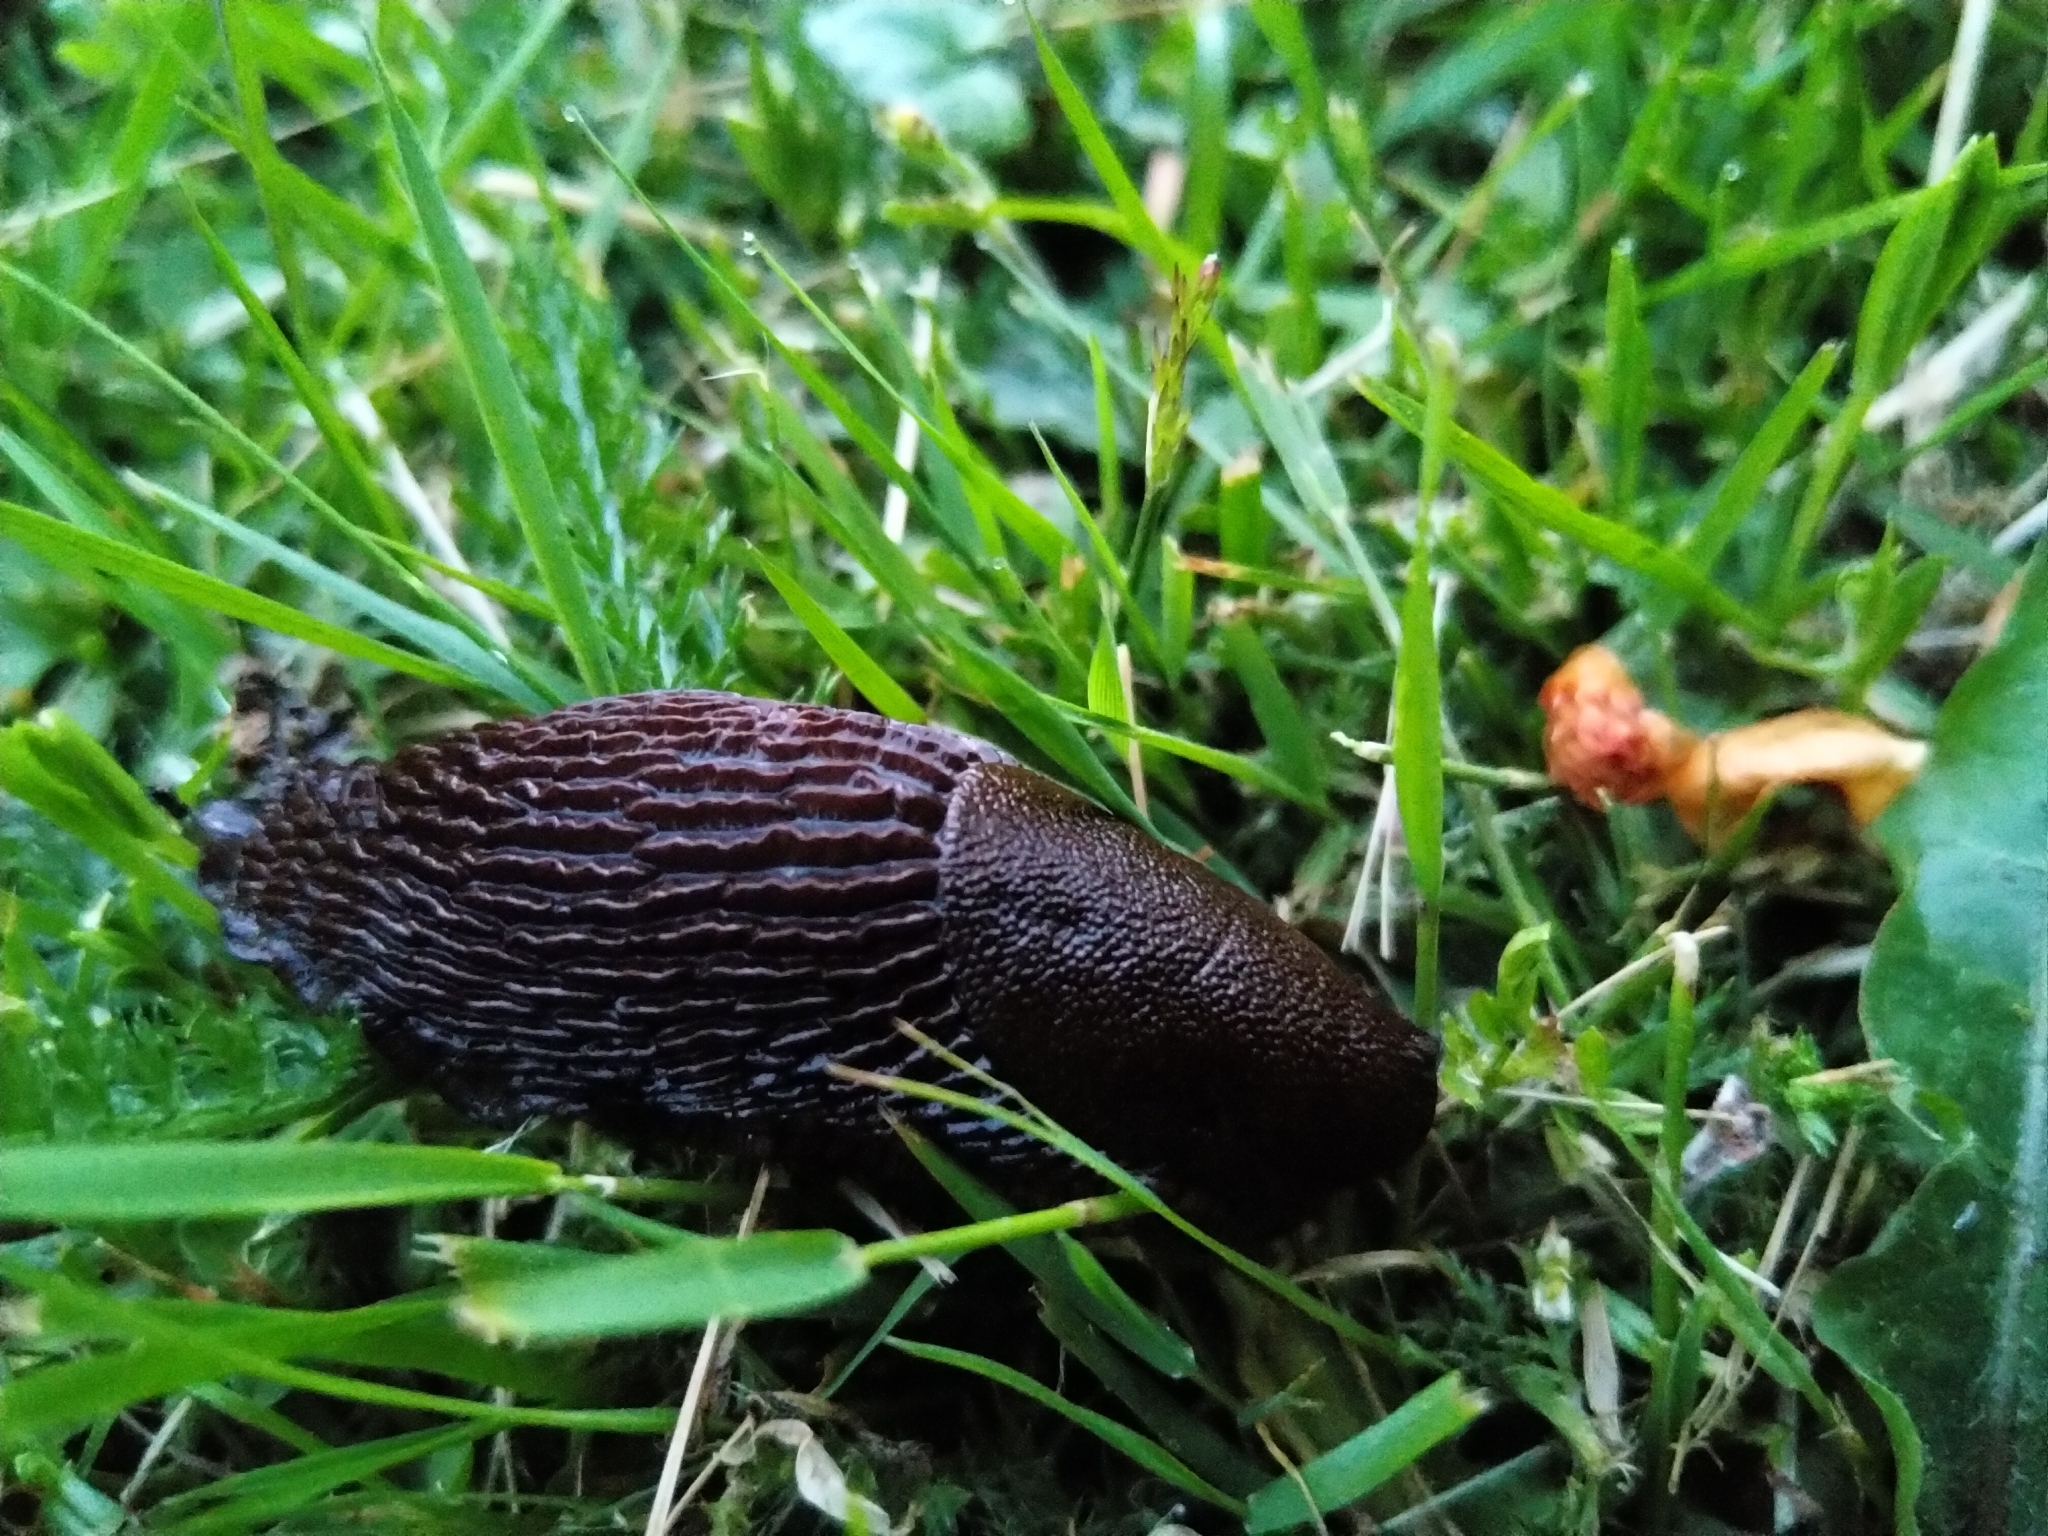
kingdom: Animalia
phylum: Mollusca
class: Gastropoda
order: Stylommatophora
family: Arionidae
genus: Arion
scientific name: Arion vulgaris
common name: Lusitanian slug
